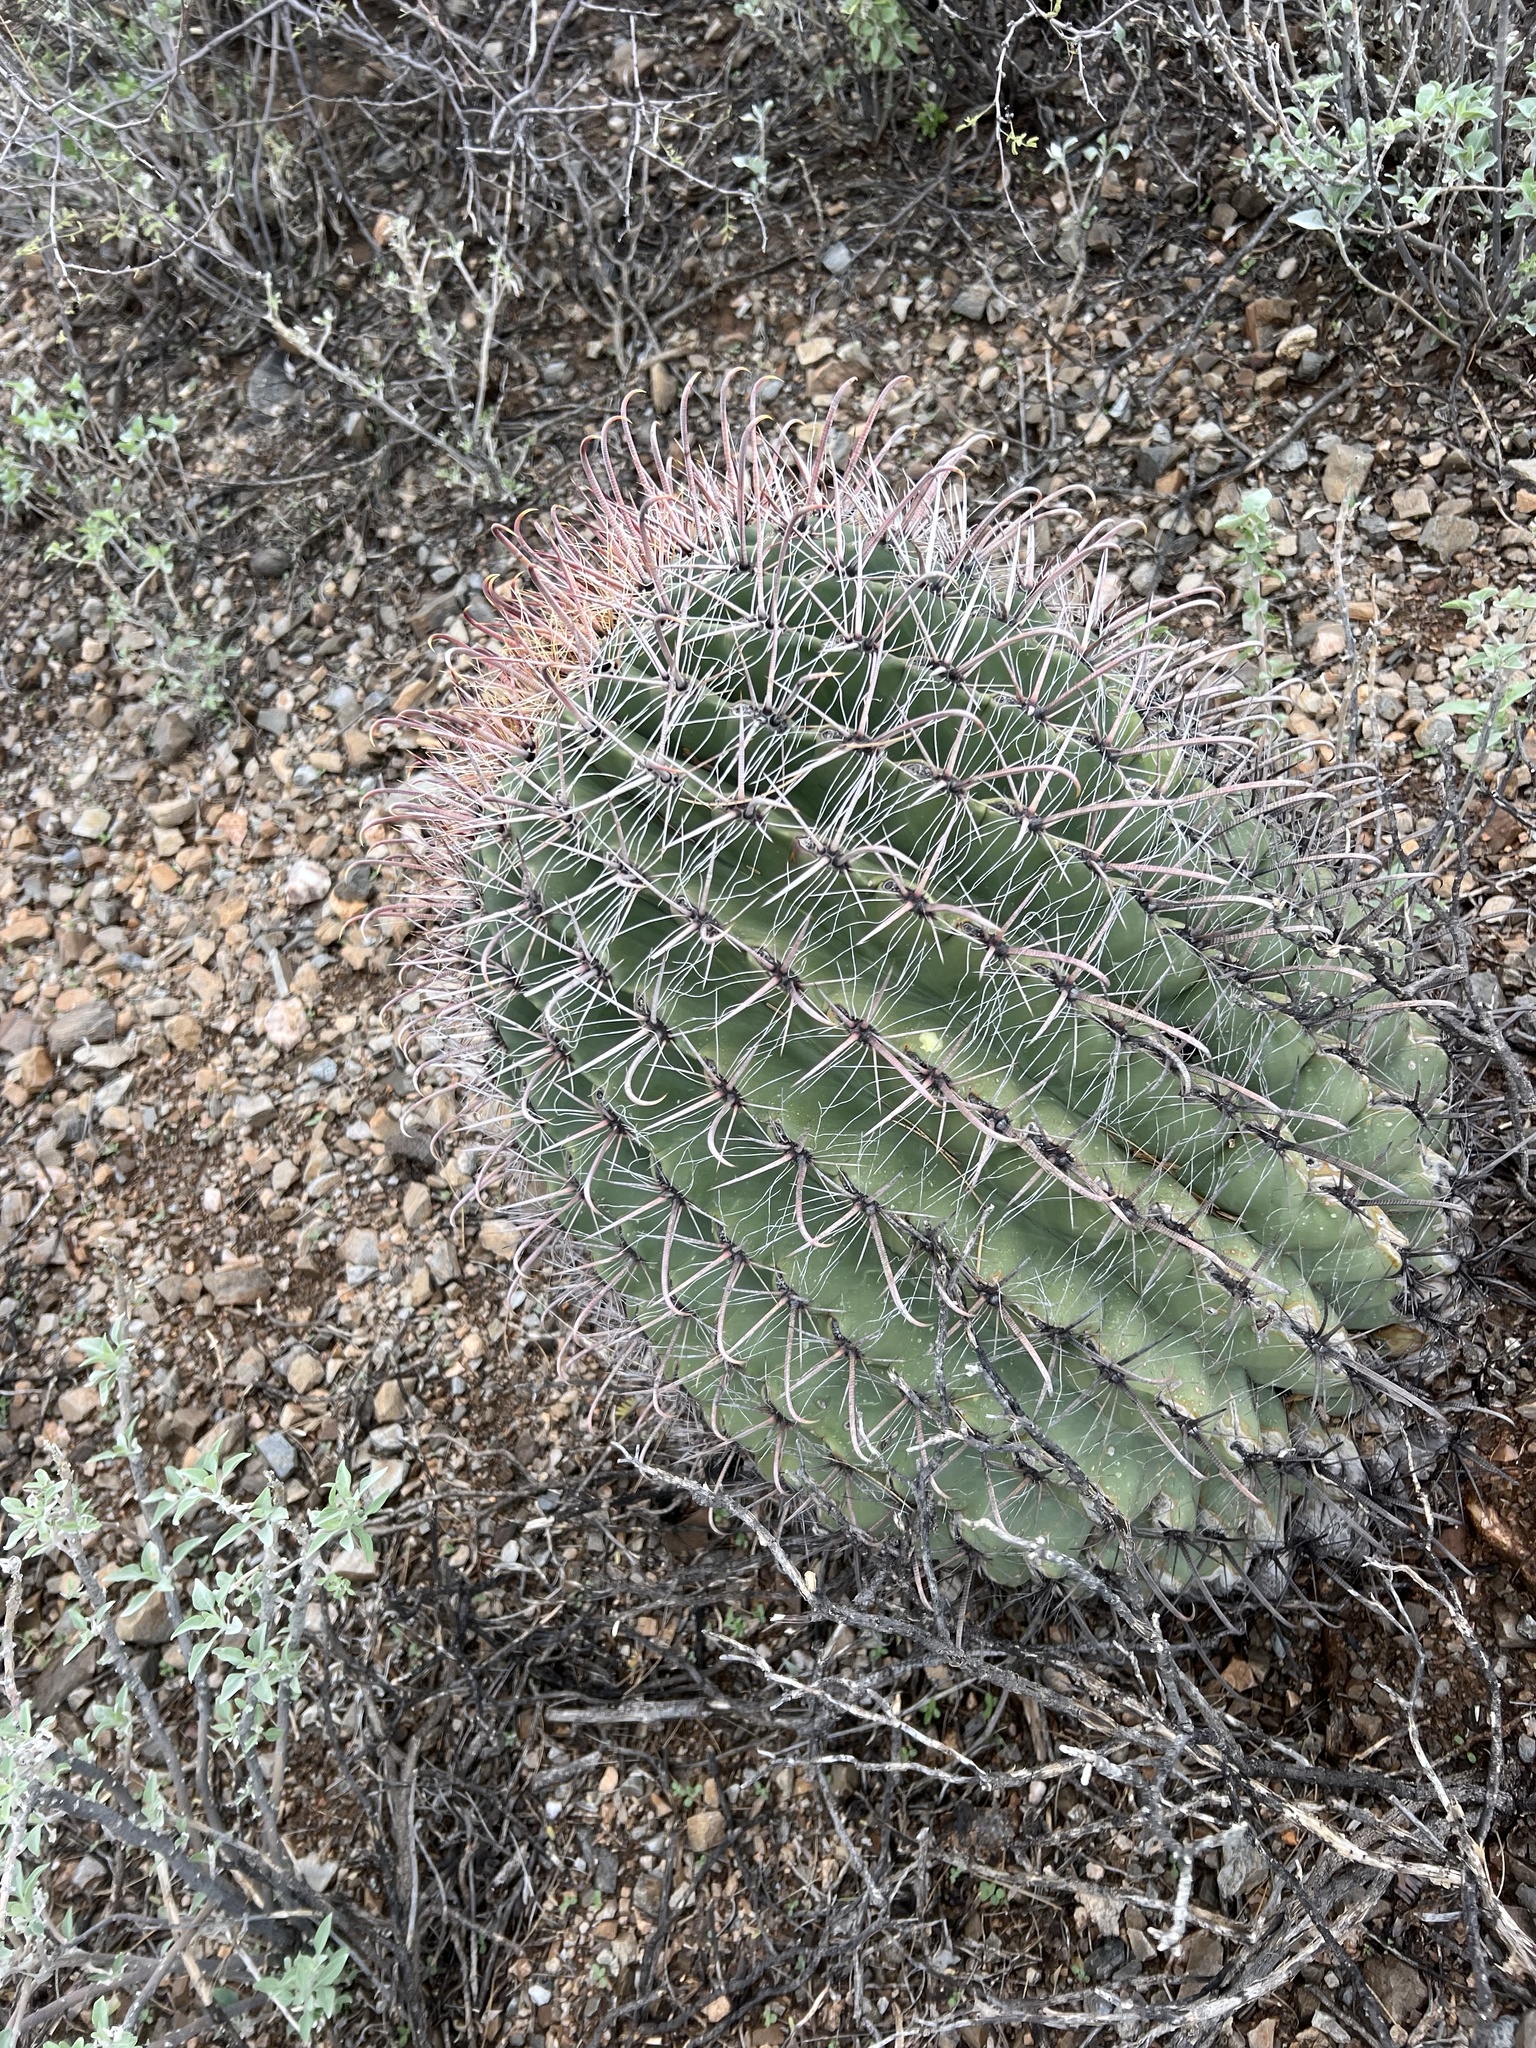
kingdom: Plantae
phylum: Tracheophyta
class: Magnoliopsida
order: Caryophyllales
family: Cactaceae
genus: Ferocactus
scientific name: Ferocactus wislizeni
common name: Candy barrel cactus
